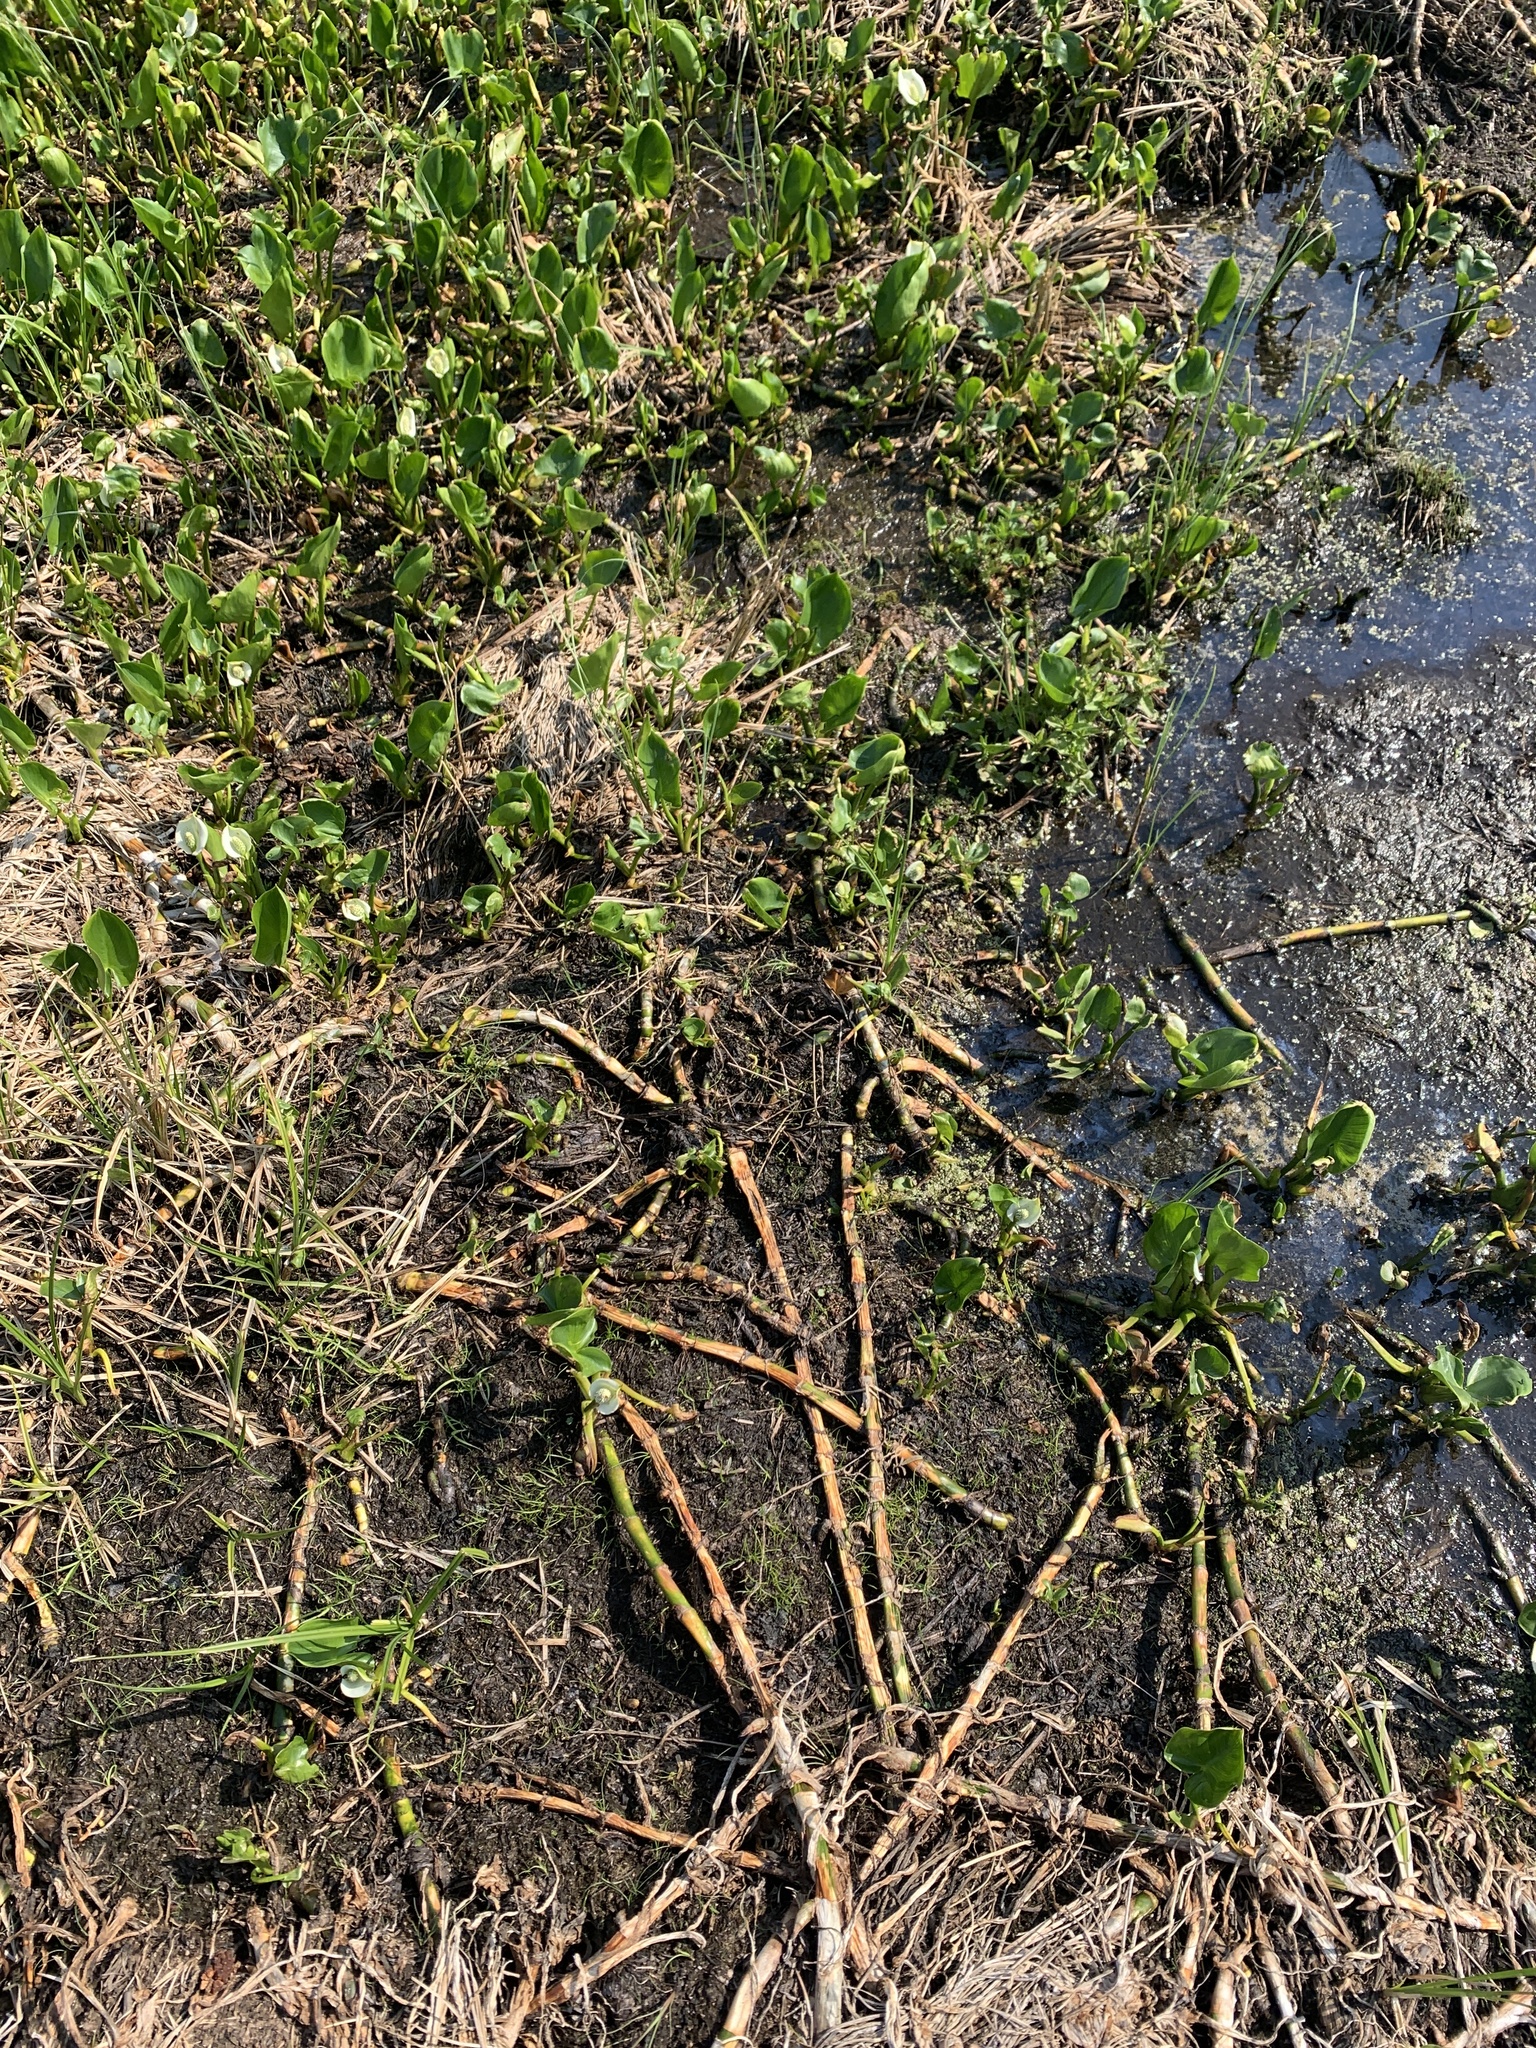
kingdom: Plantae
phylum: Tracheophyta
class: Liliopsida
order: Alismatales
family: Araceae
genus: Calla
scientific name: Calla palustris
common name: Bog arum
